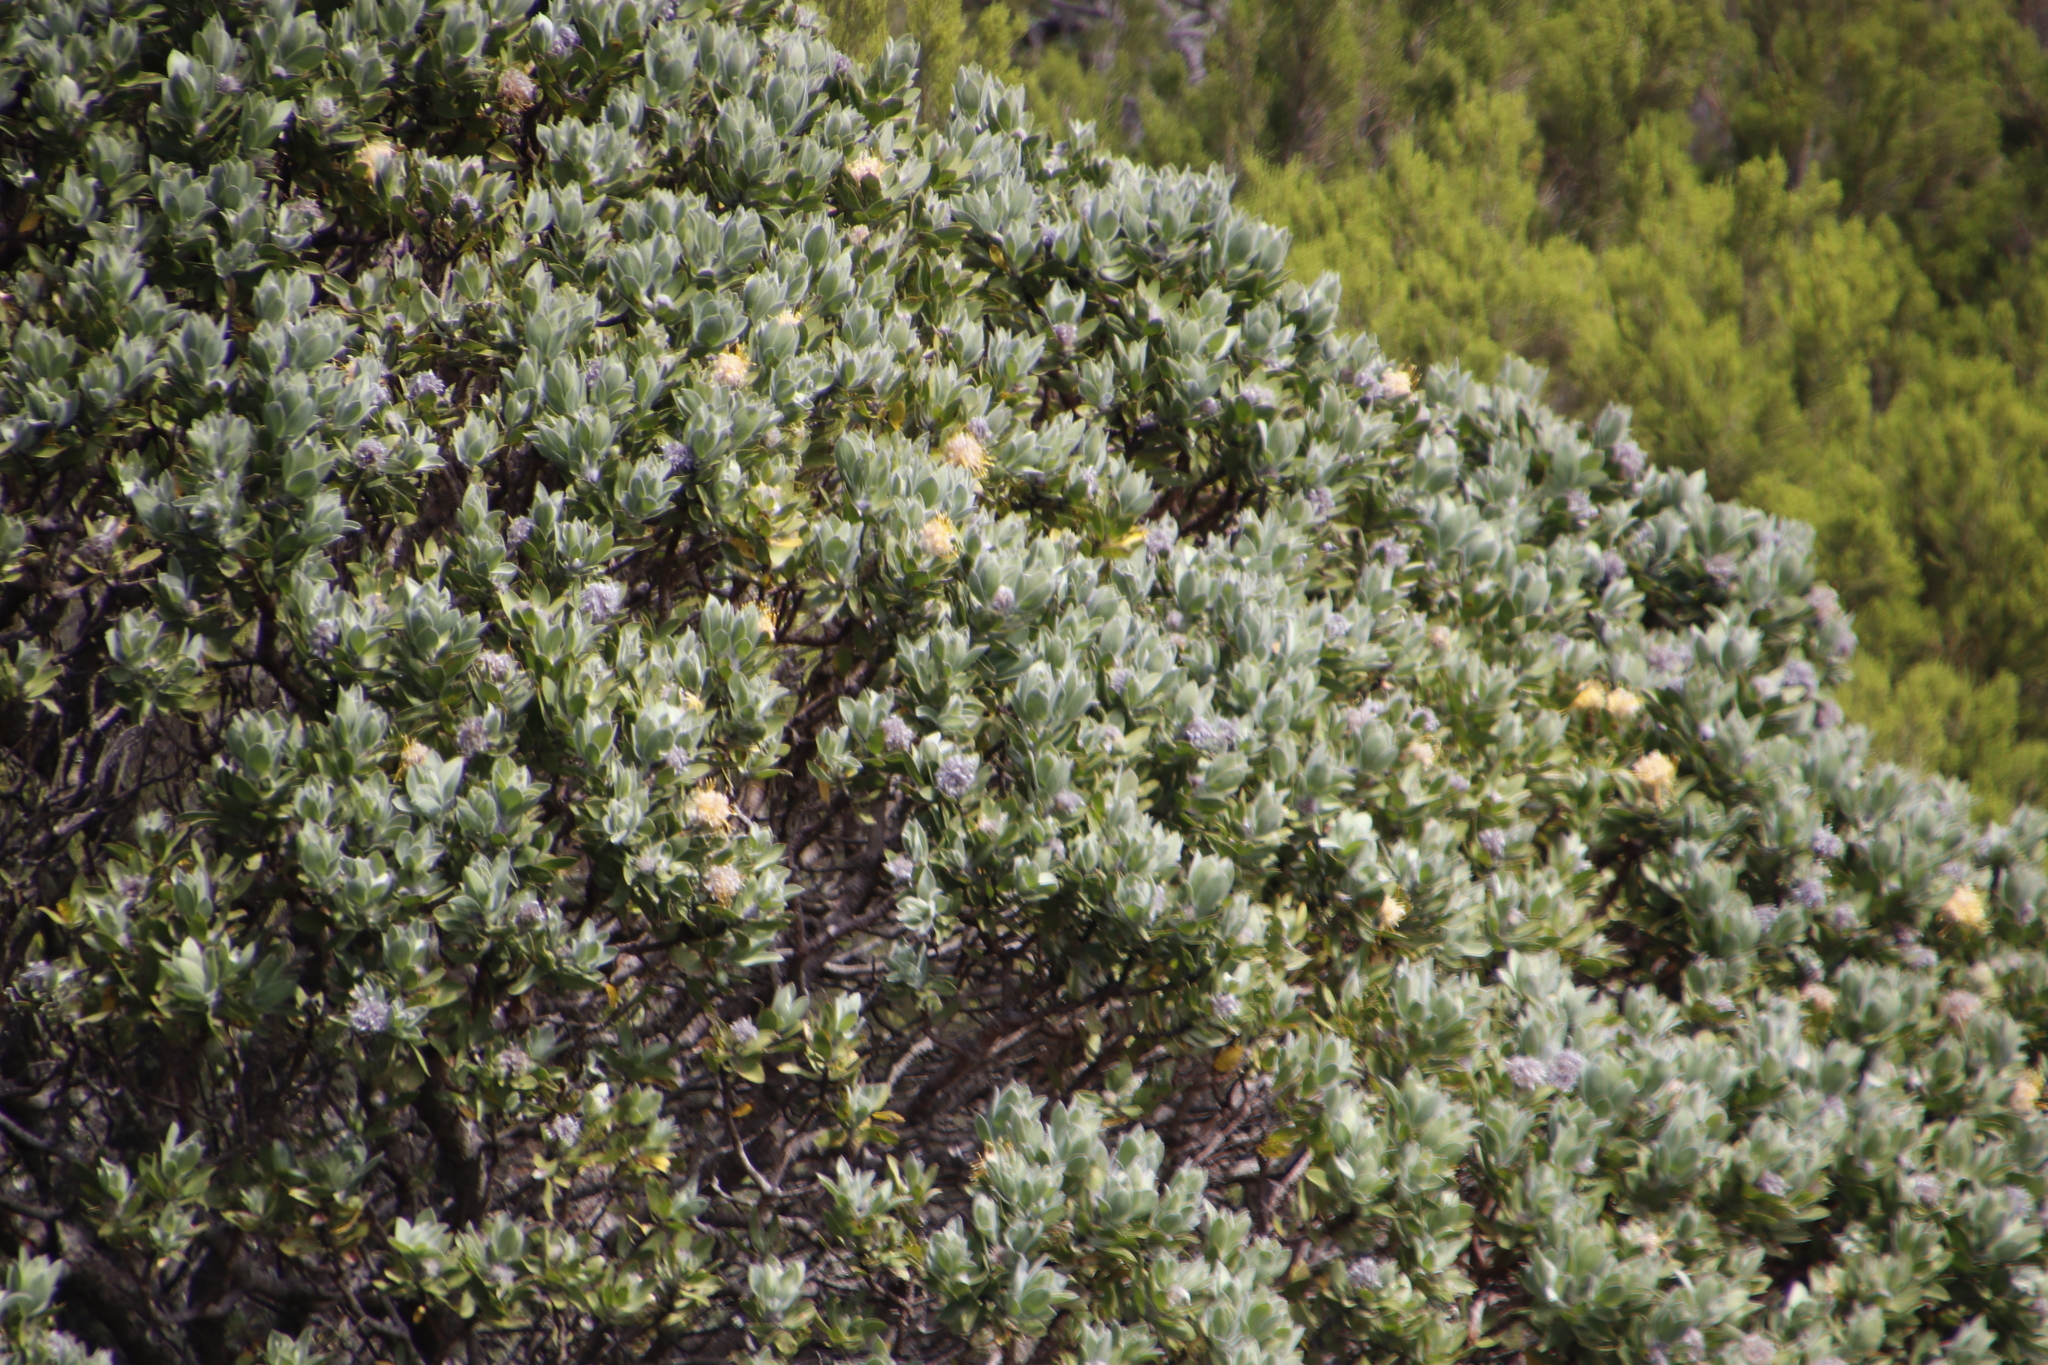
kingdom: Plantae
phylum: Tracheophyta
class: Magnoliopsida
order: Proteales
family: Proteaceae
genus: Leucospermum
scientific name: Leucospermum conocarpodendron
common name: Tree pincushion
